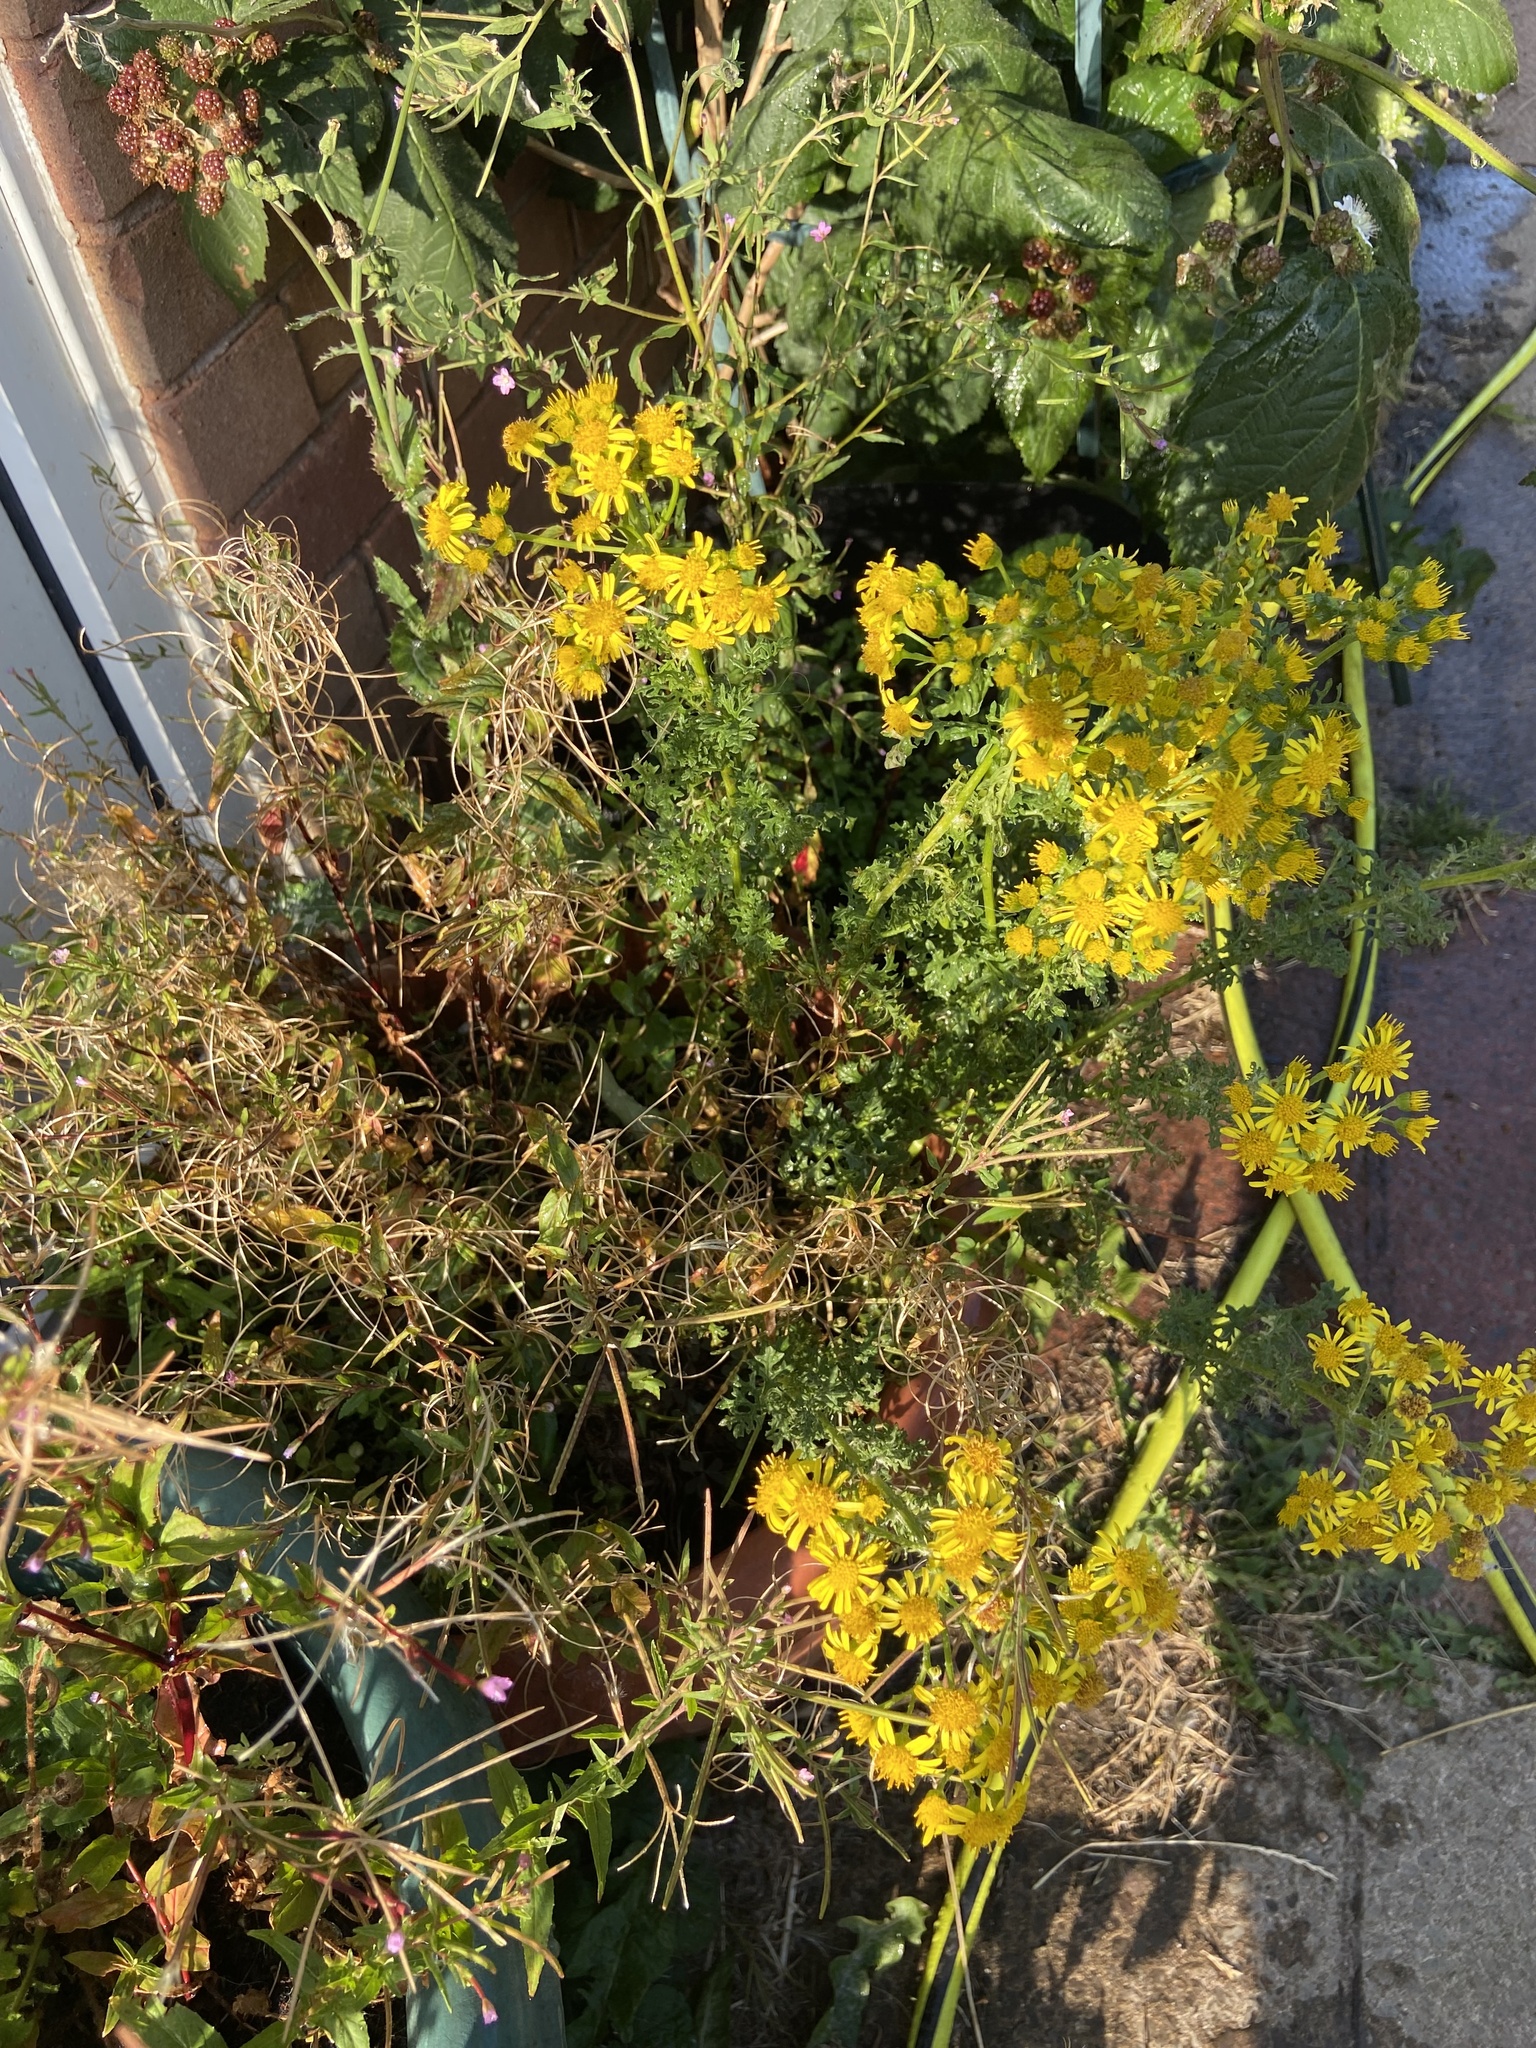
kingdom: Plantae
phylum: Tracheophyta
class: Magnoliopsida
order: Asterales
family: Asteraceae
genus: Jacobaea
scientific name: Jacobaea vulgaris
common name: Stinking willie
